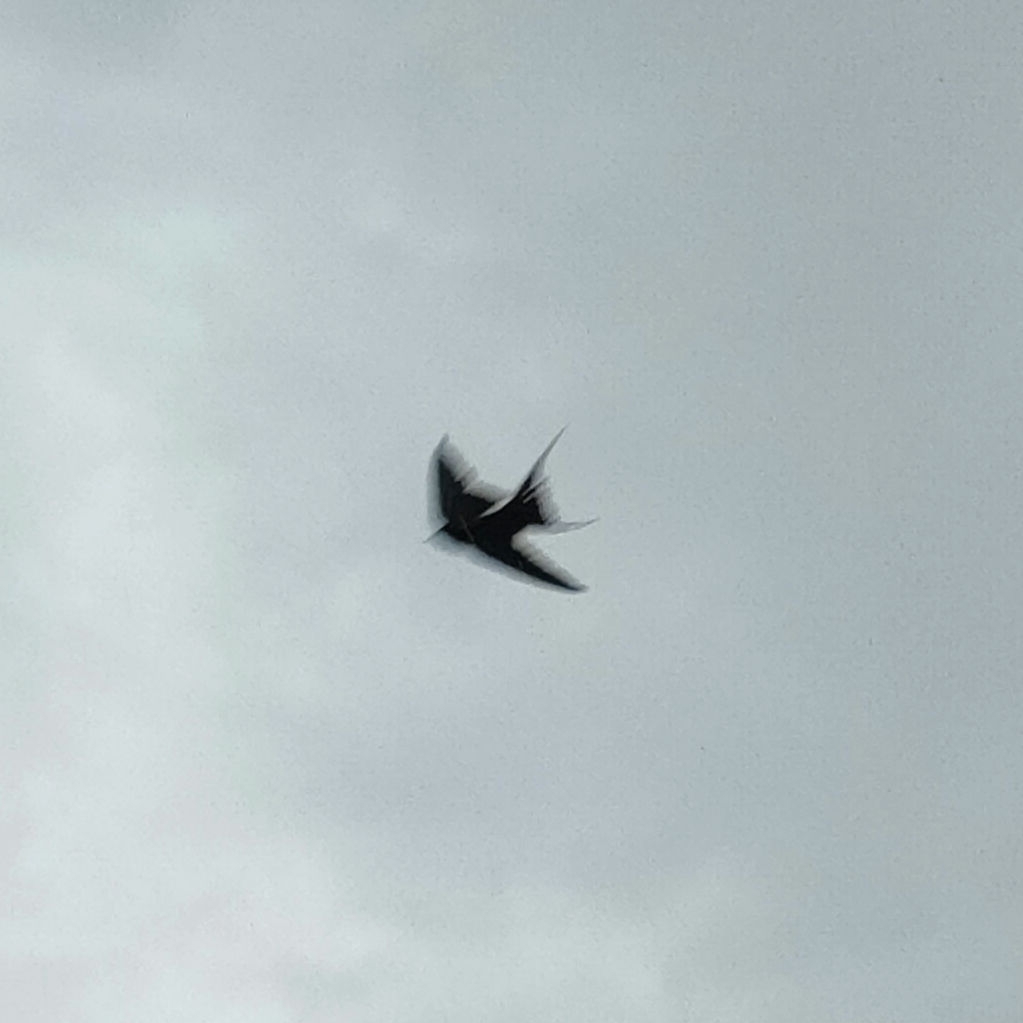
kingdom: Animalia
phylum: Chordata
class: Aves
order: Passeriformes
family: Hirundinidae
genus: Hirundo
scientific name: Hirundo rustica
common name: Barn swallow
